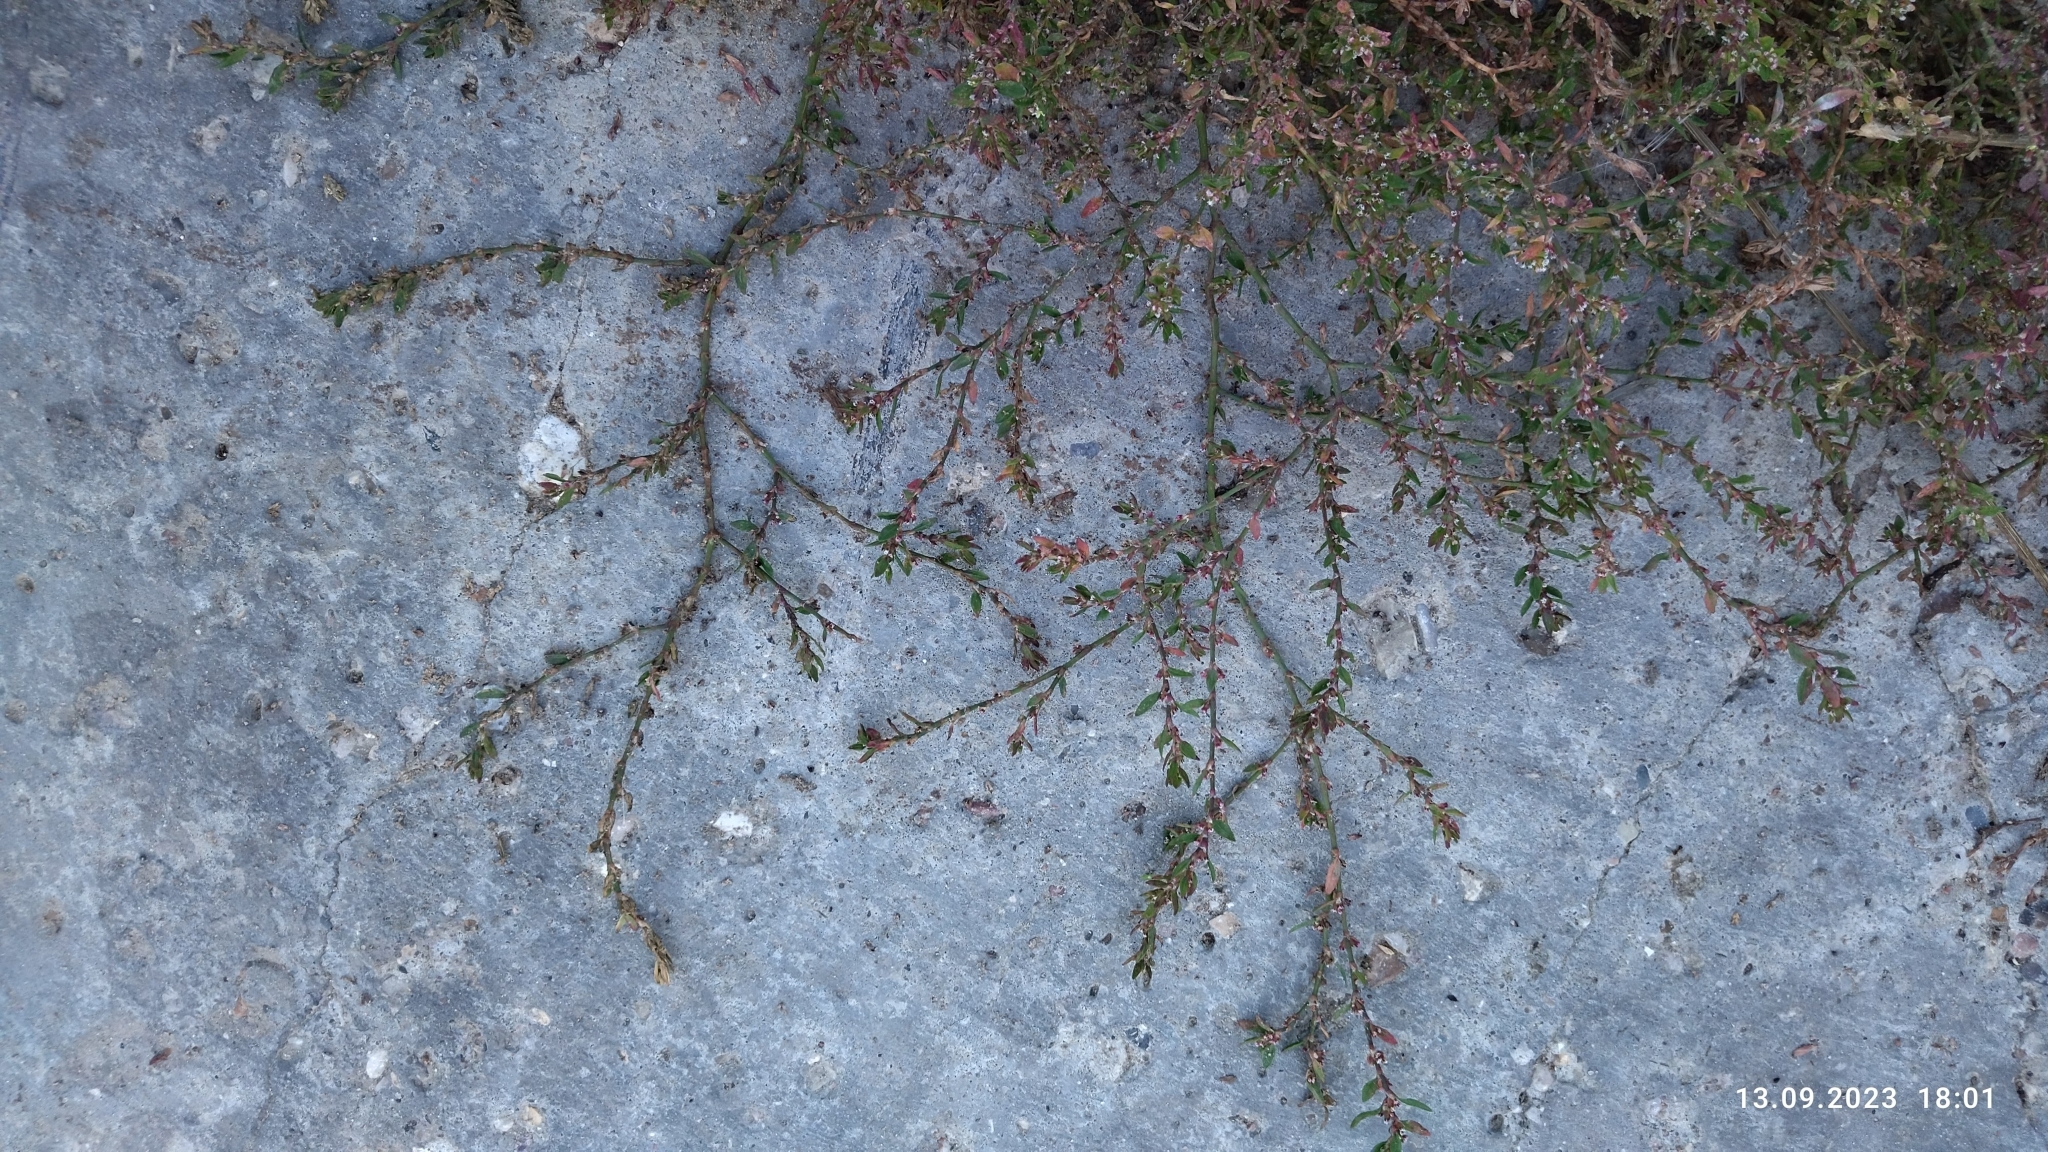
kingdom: Plantae
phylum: Tracheophyta
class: Magnoliopsida
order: Caryophyllales
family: Polygonaceae
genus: Polygonum
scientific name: Polygonum
